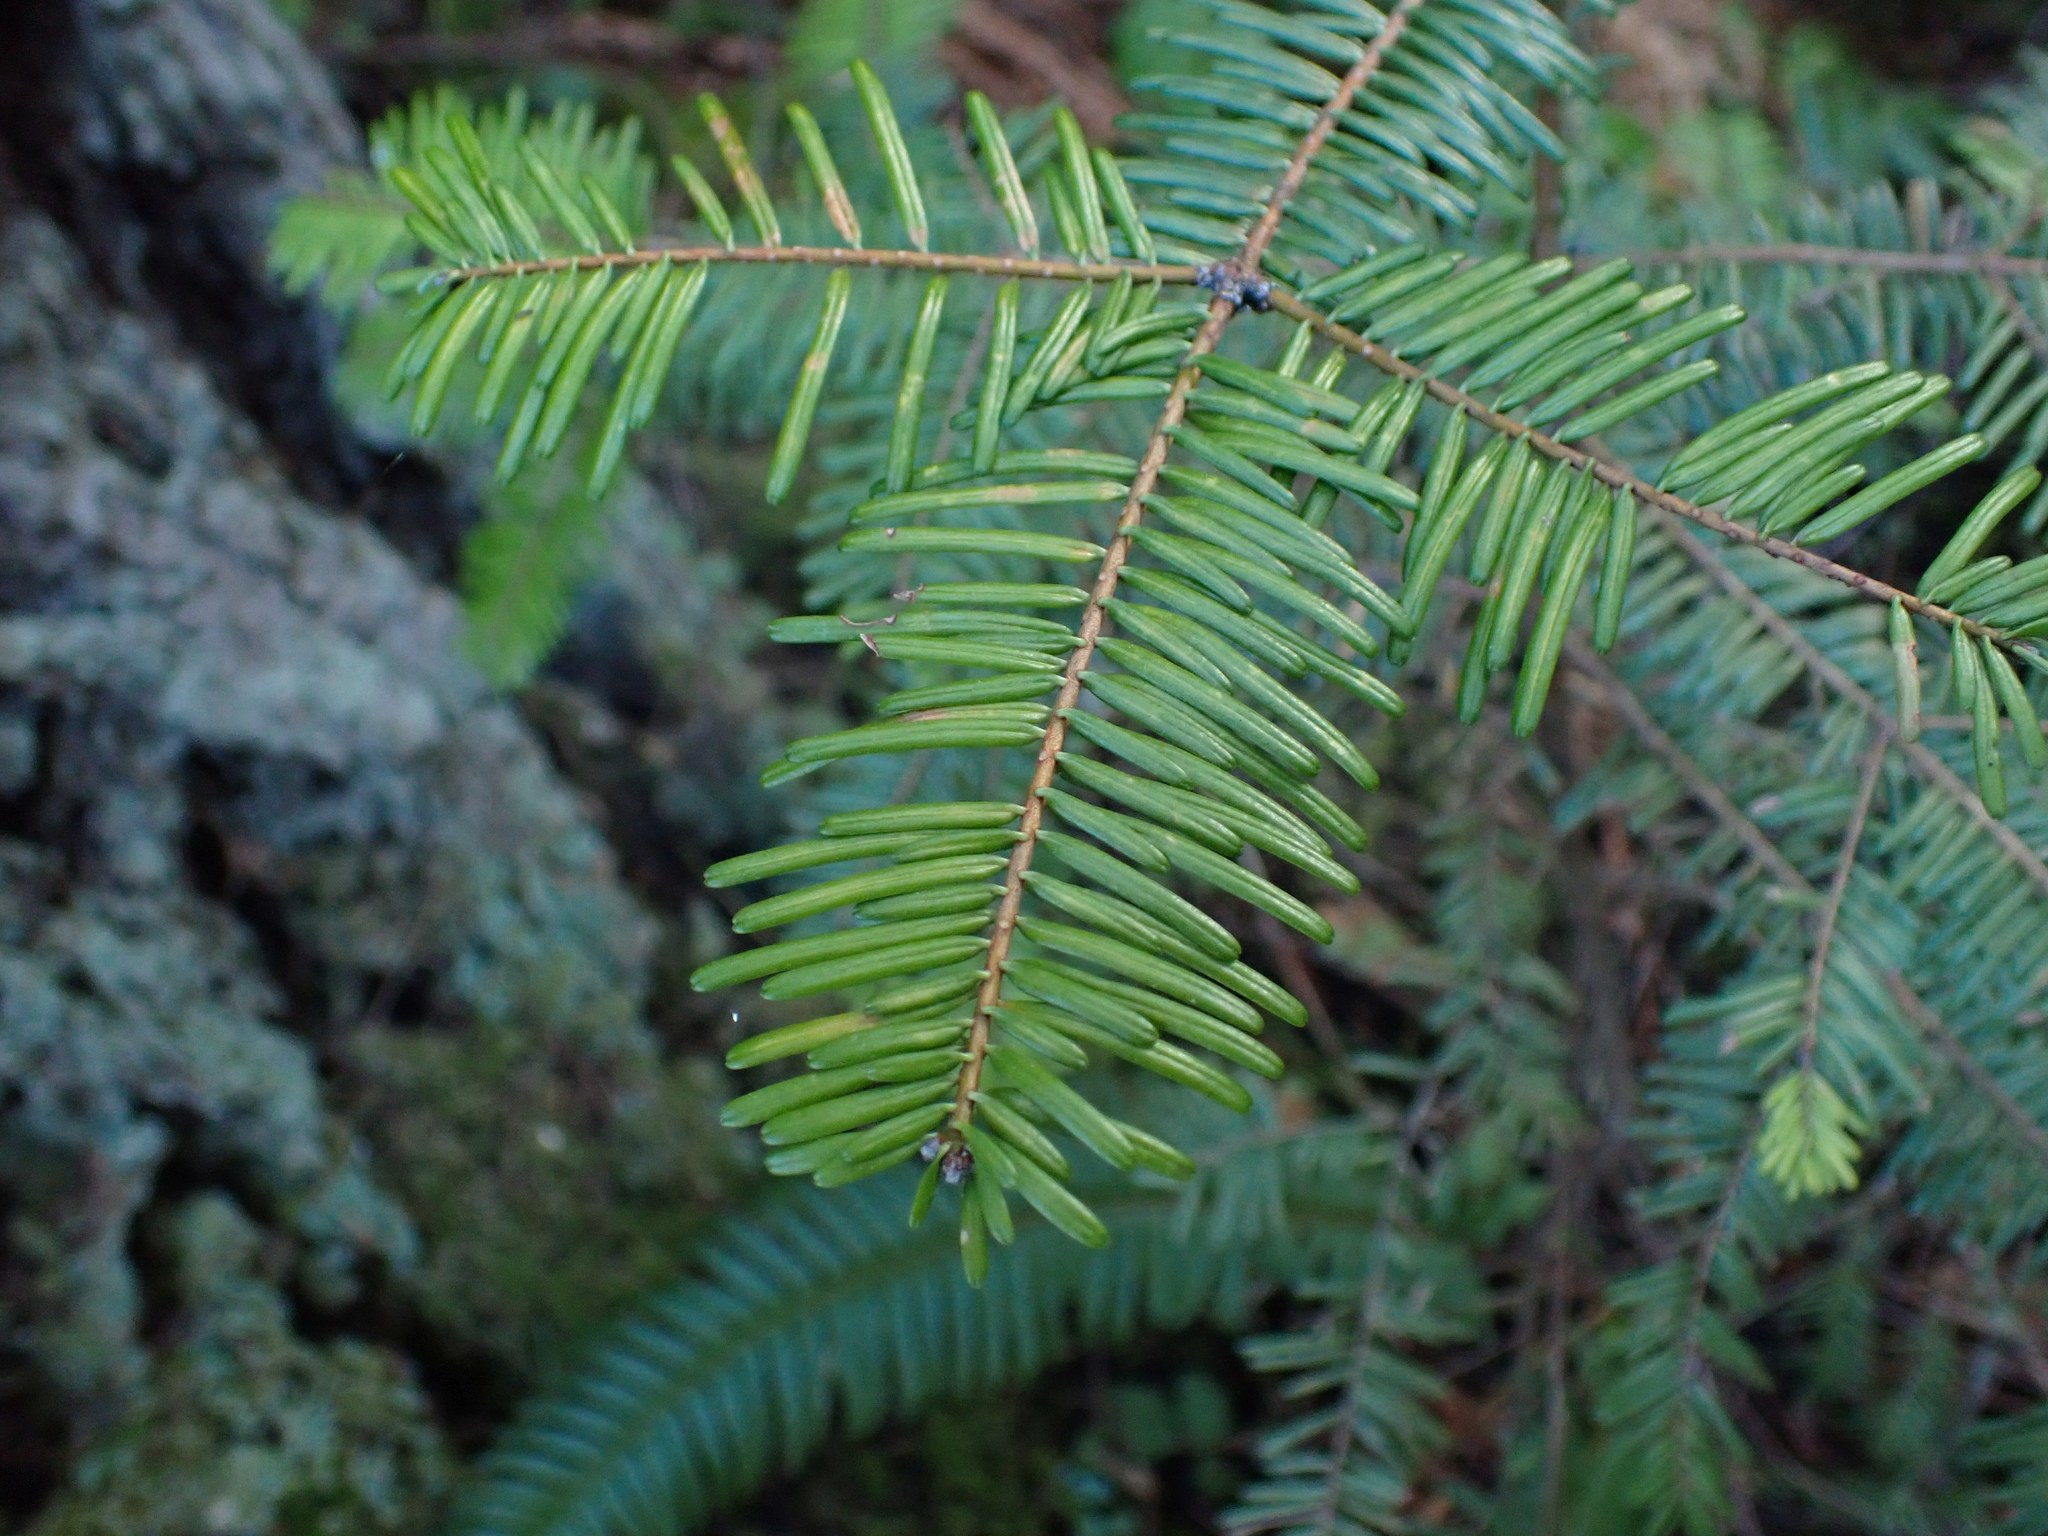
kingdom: Plantae
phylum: Tracheophyta
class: Pinopsida
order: Pinales
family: Pinaceae
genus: Abies
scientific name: Abies grandis
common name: Giant fir
